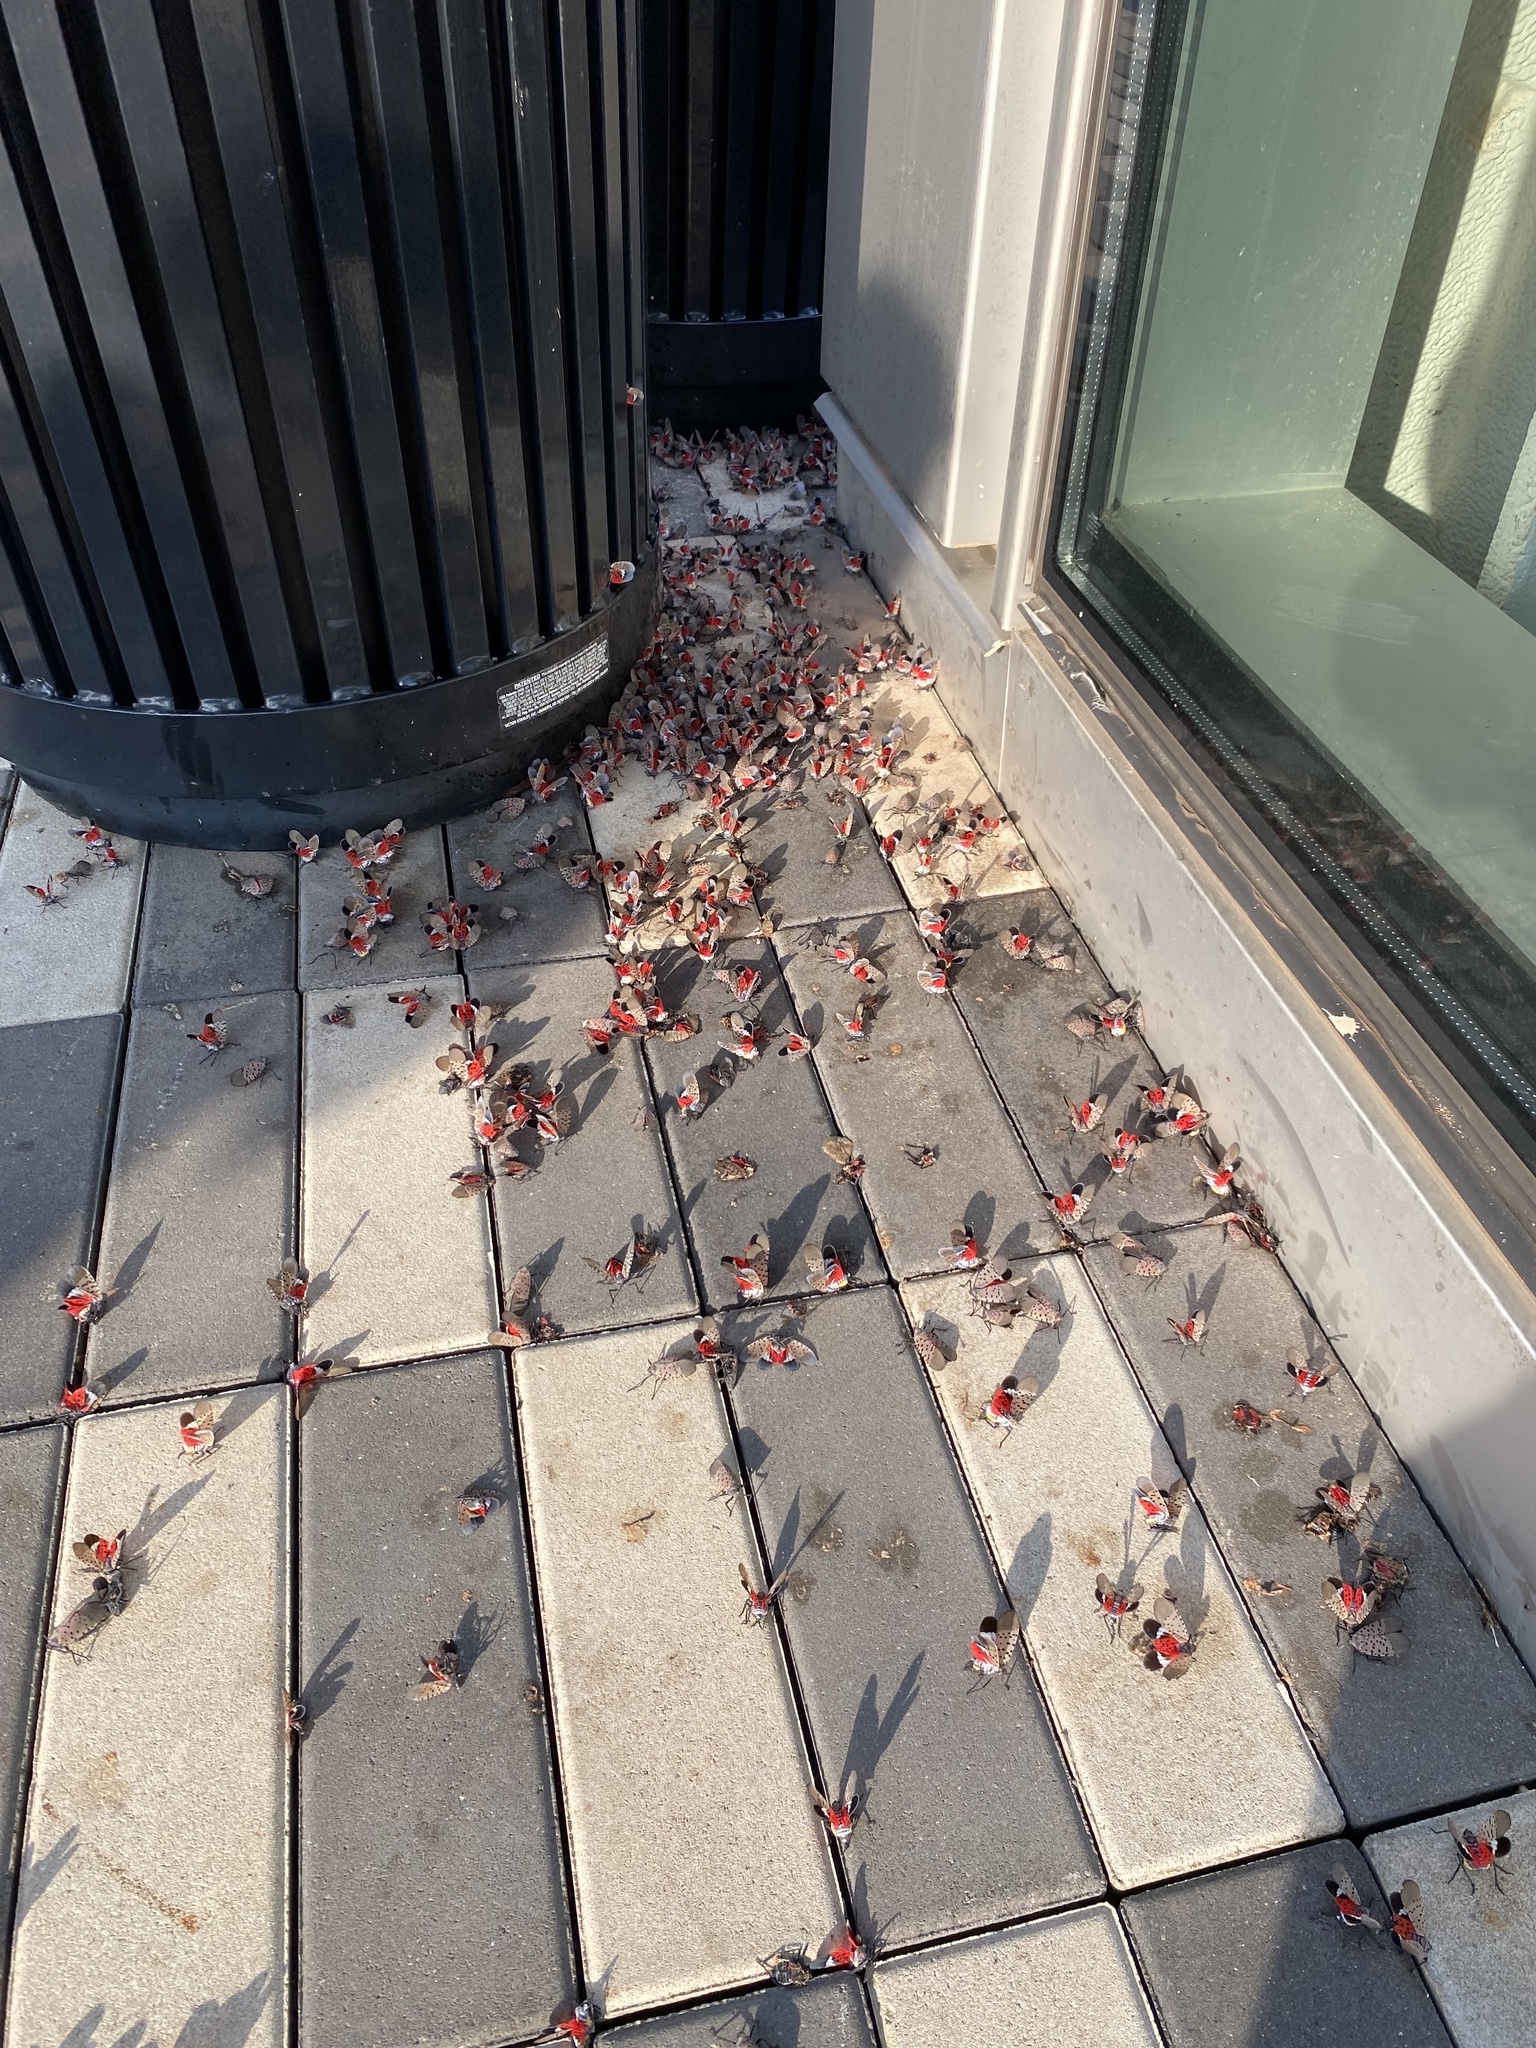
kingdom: Animalia
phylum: Arthropoda
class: Insecta
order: Hemiptera
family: Fulgoridae
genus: Lycorma
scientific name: Lycorma delicatula
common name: Spotted lanternfly
